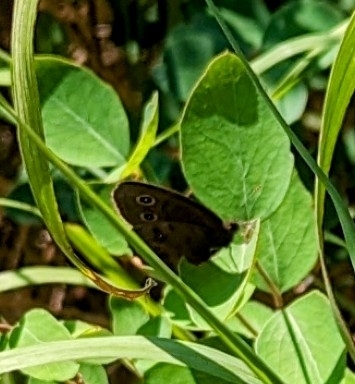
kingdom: Animalia
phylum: Arthropoda
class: Insecta
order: Lepidoptera
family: Nymphalidae
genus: Cercyonis
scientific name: Cercyonis pegala
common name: Common wood-nymph
